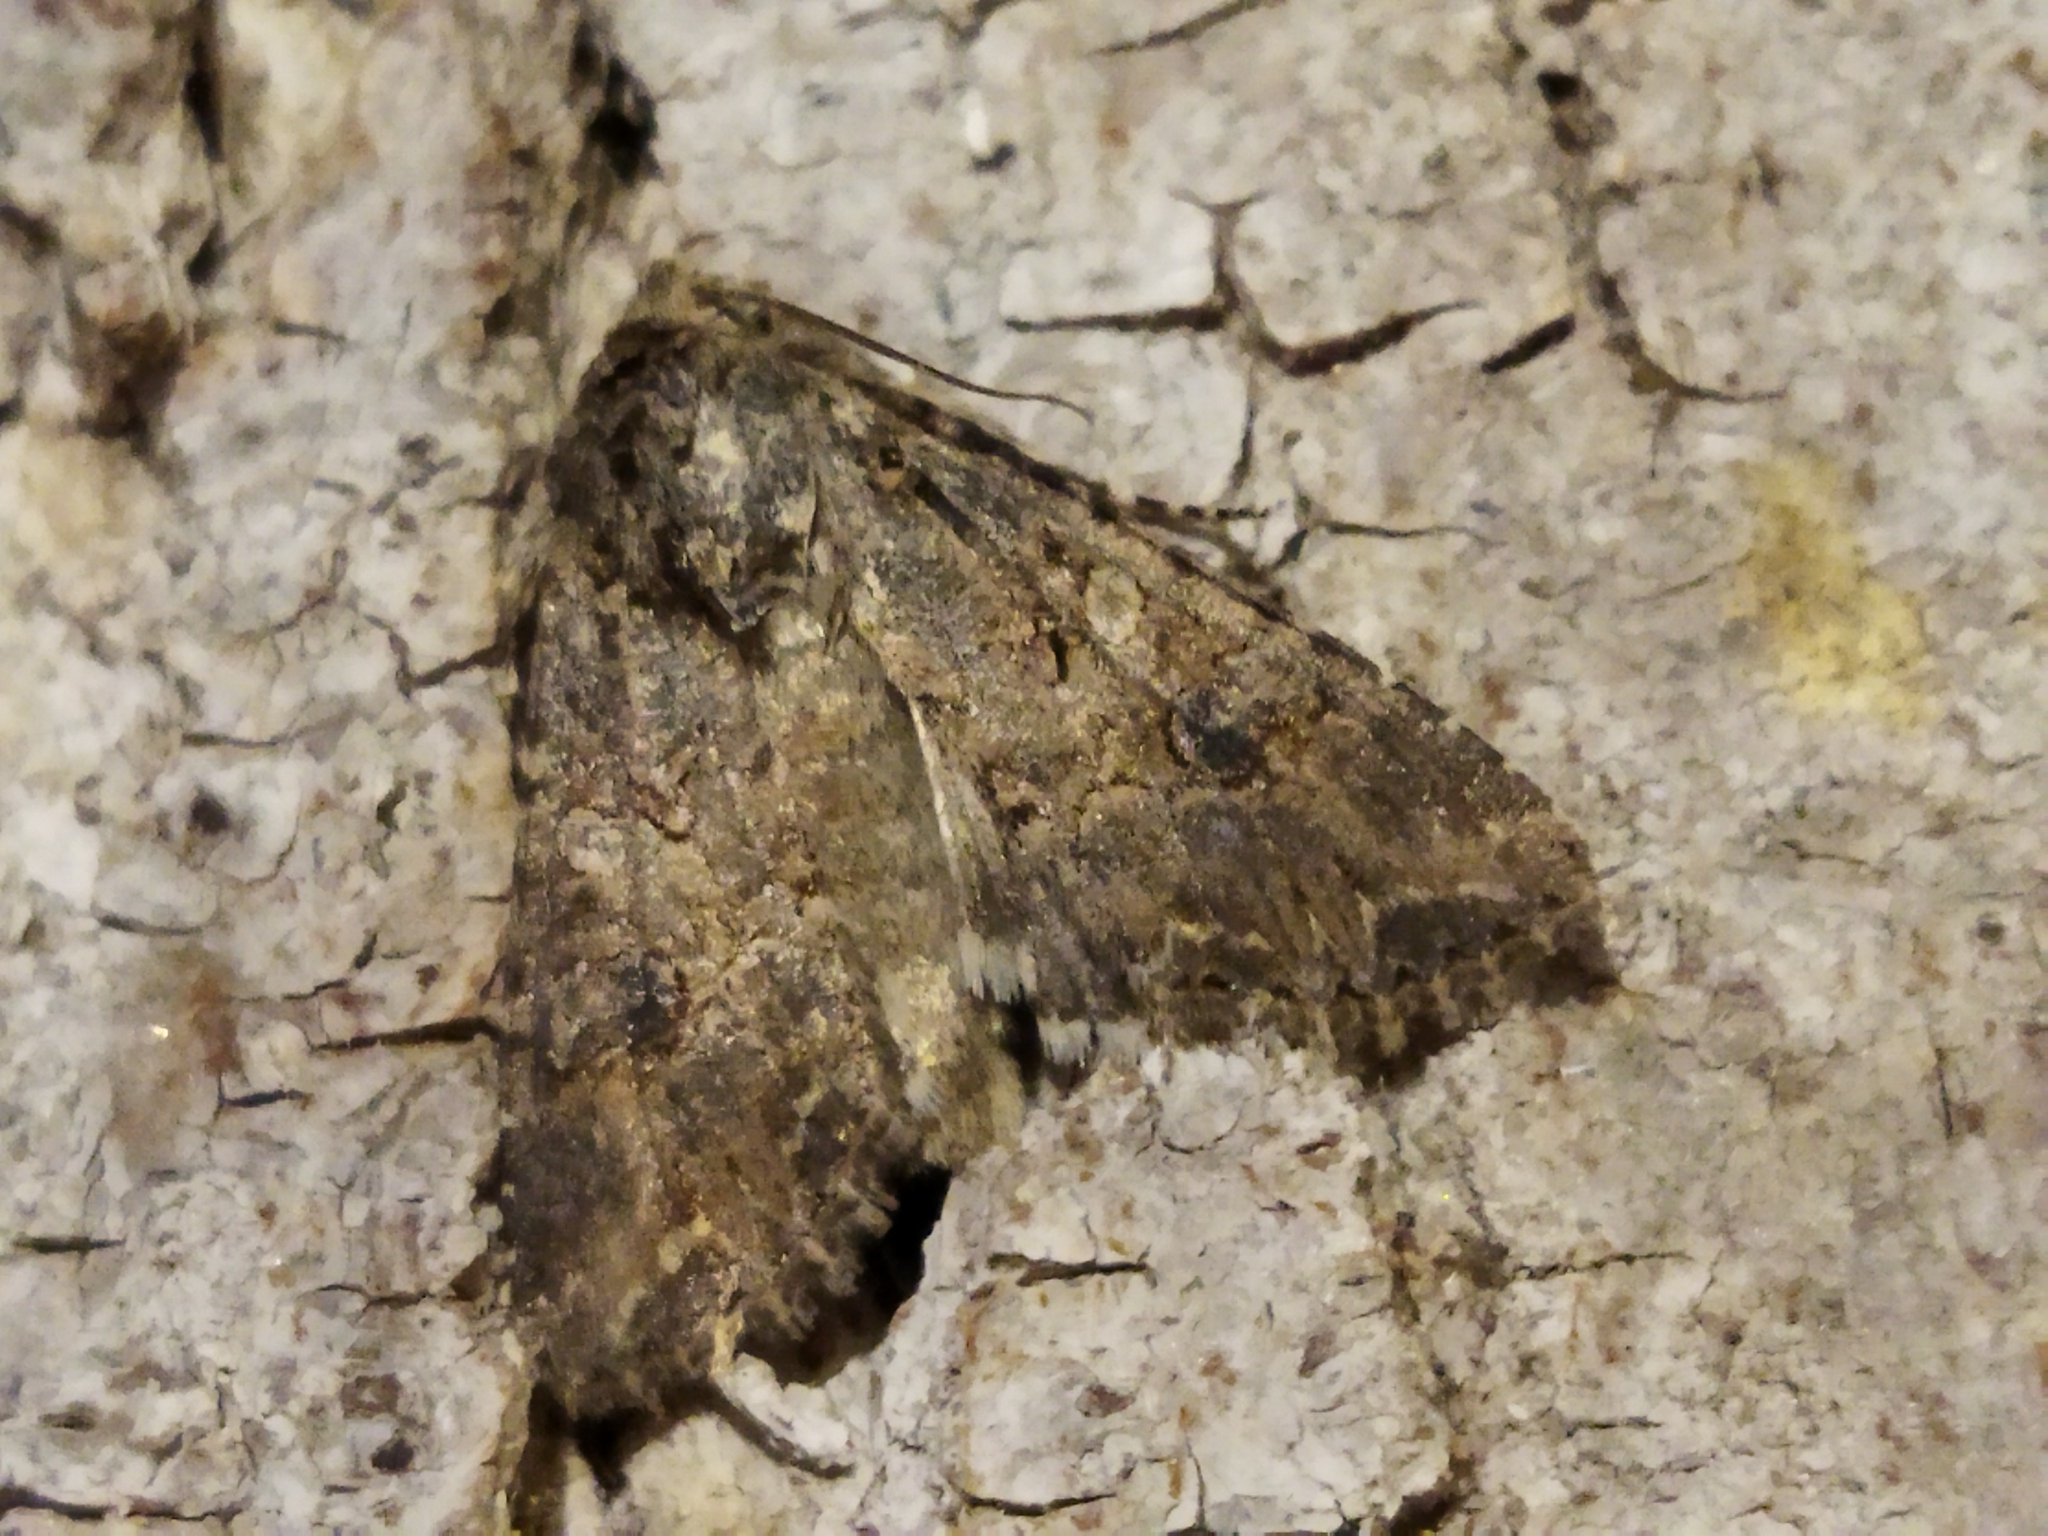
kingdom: Animalia
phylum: Arthropoda
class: Insecta
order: Lepidoptera
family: Noctuidae
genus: Anarta
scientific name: Anarta trifolii
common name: Clover cutworm moth
